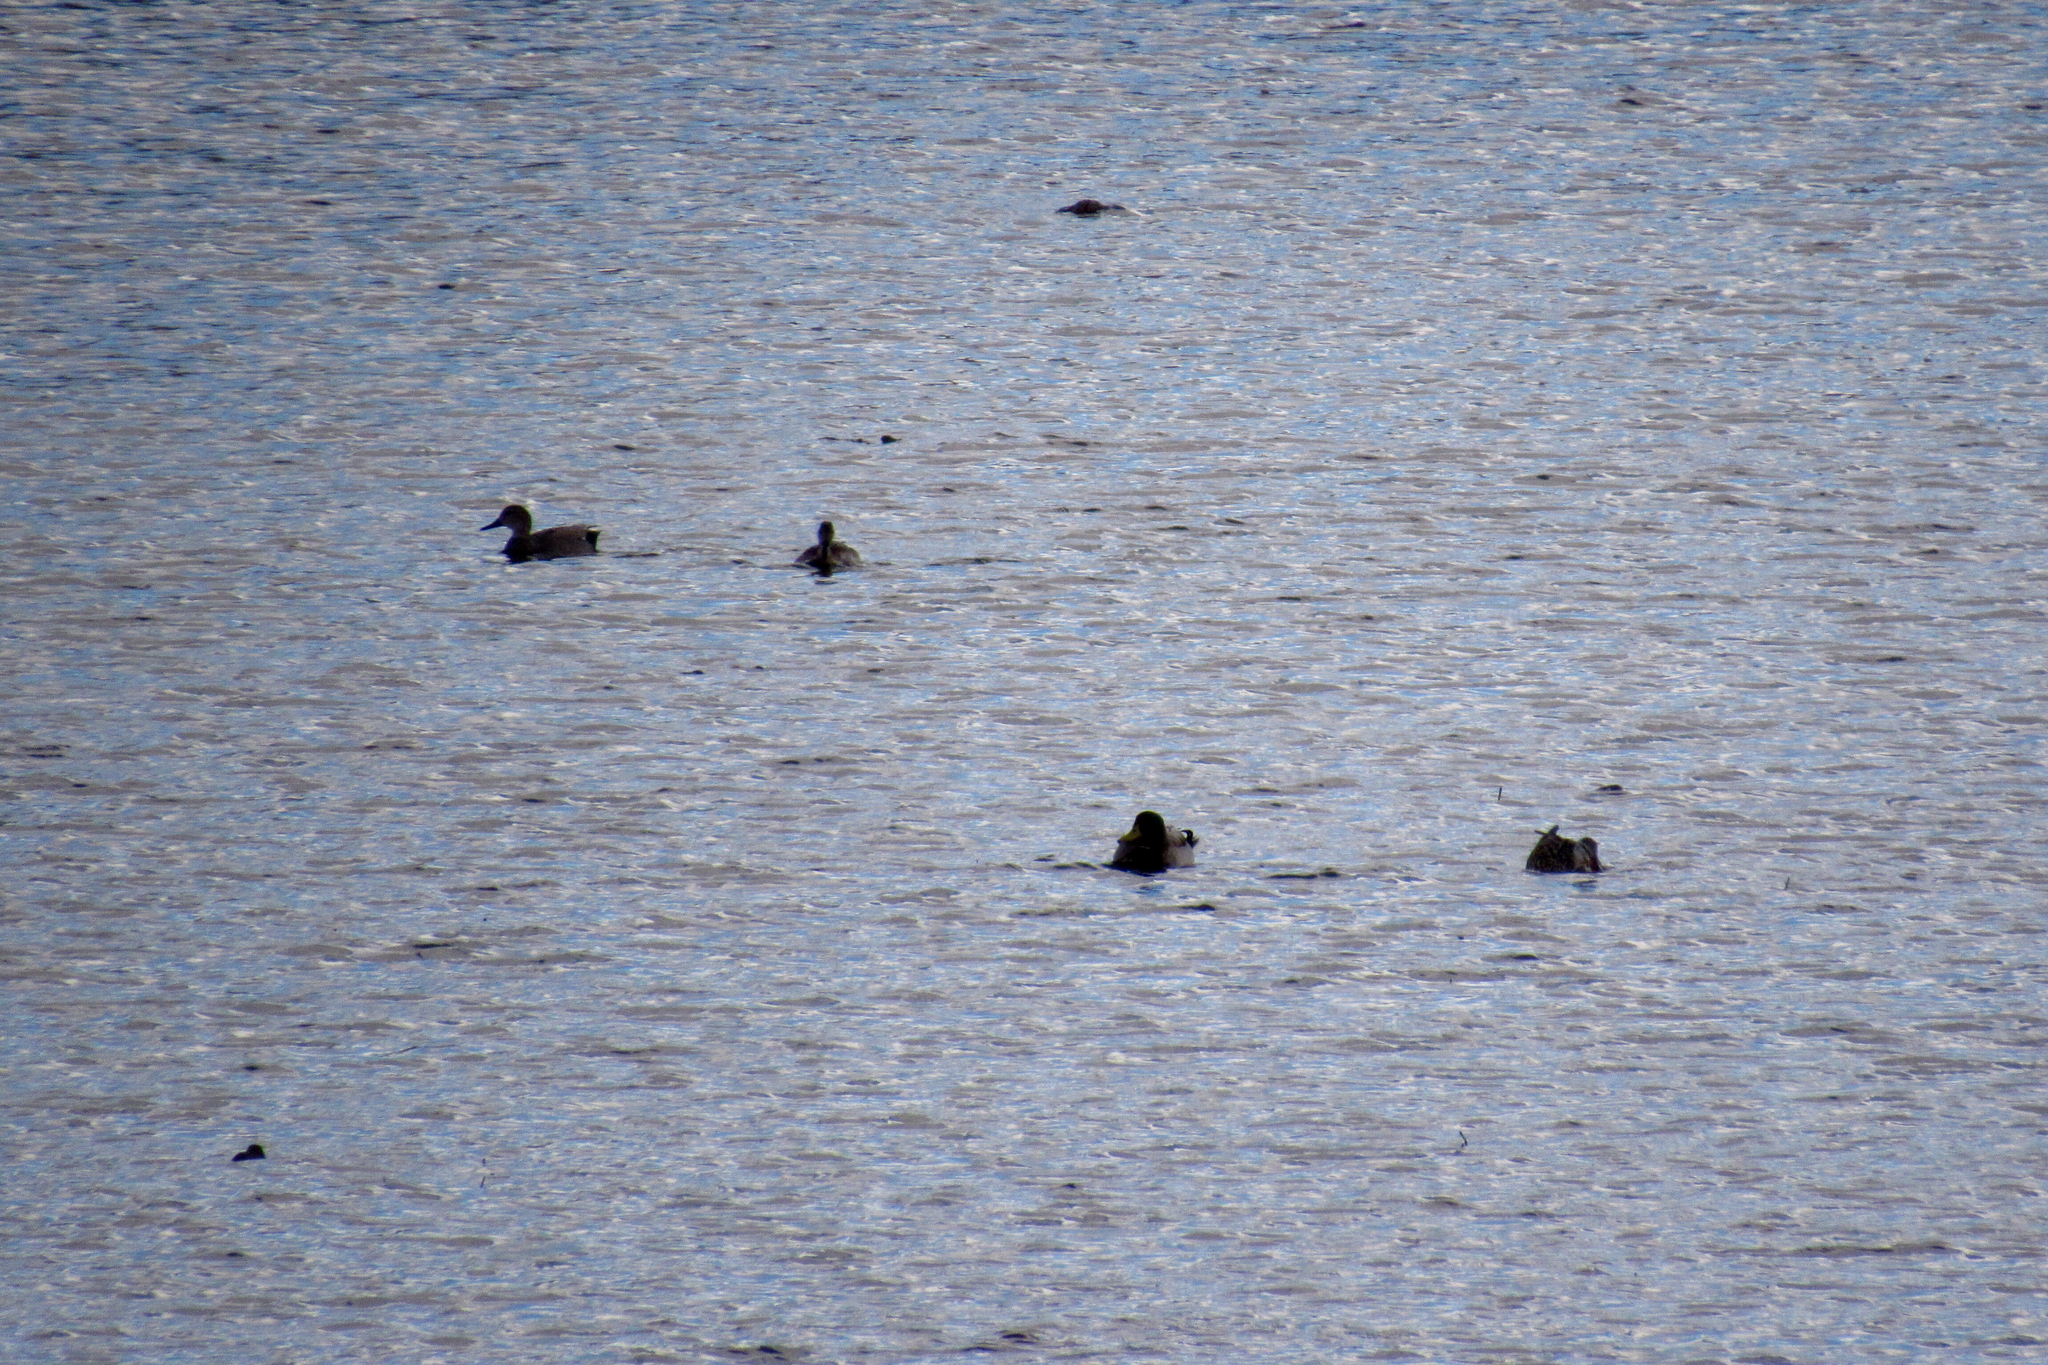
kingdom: Animalia
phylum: Chordata
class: Aves
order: Anseriformes
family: Anatidae
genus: Anas
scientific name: Anas platyrhynchos
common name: Mallard
